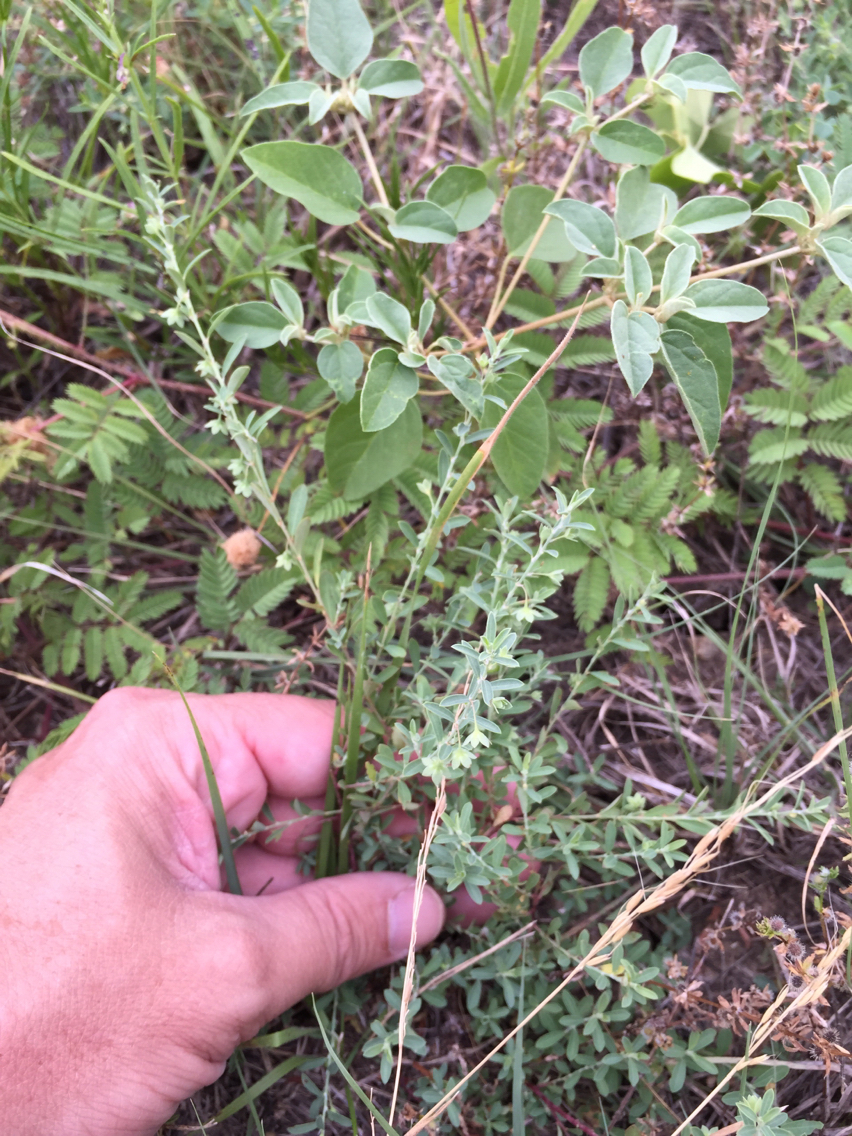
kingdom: Plantae
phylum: Tracheophyta
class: Magnoliopsida
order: Malpighiales
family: Phyllanthaceae
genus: Phyllanthus
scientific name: Phyllanthus polygonoides
